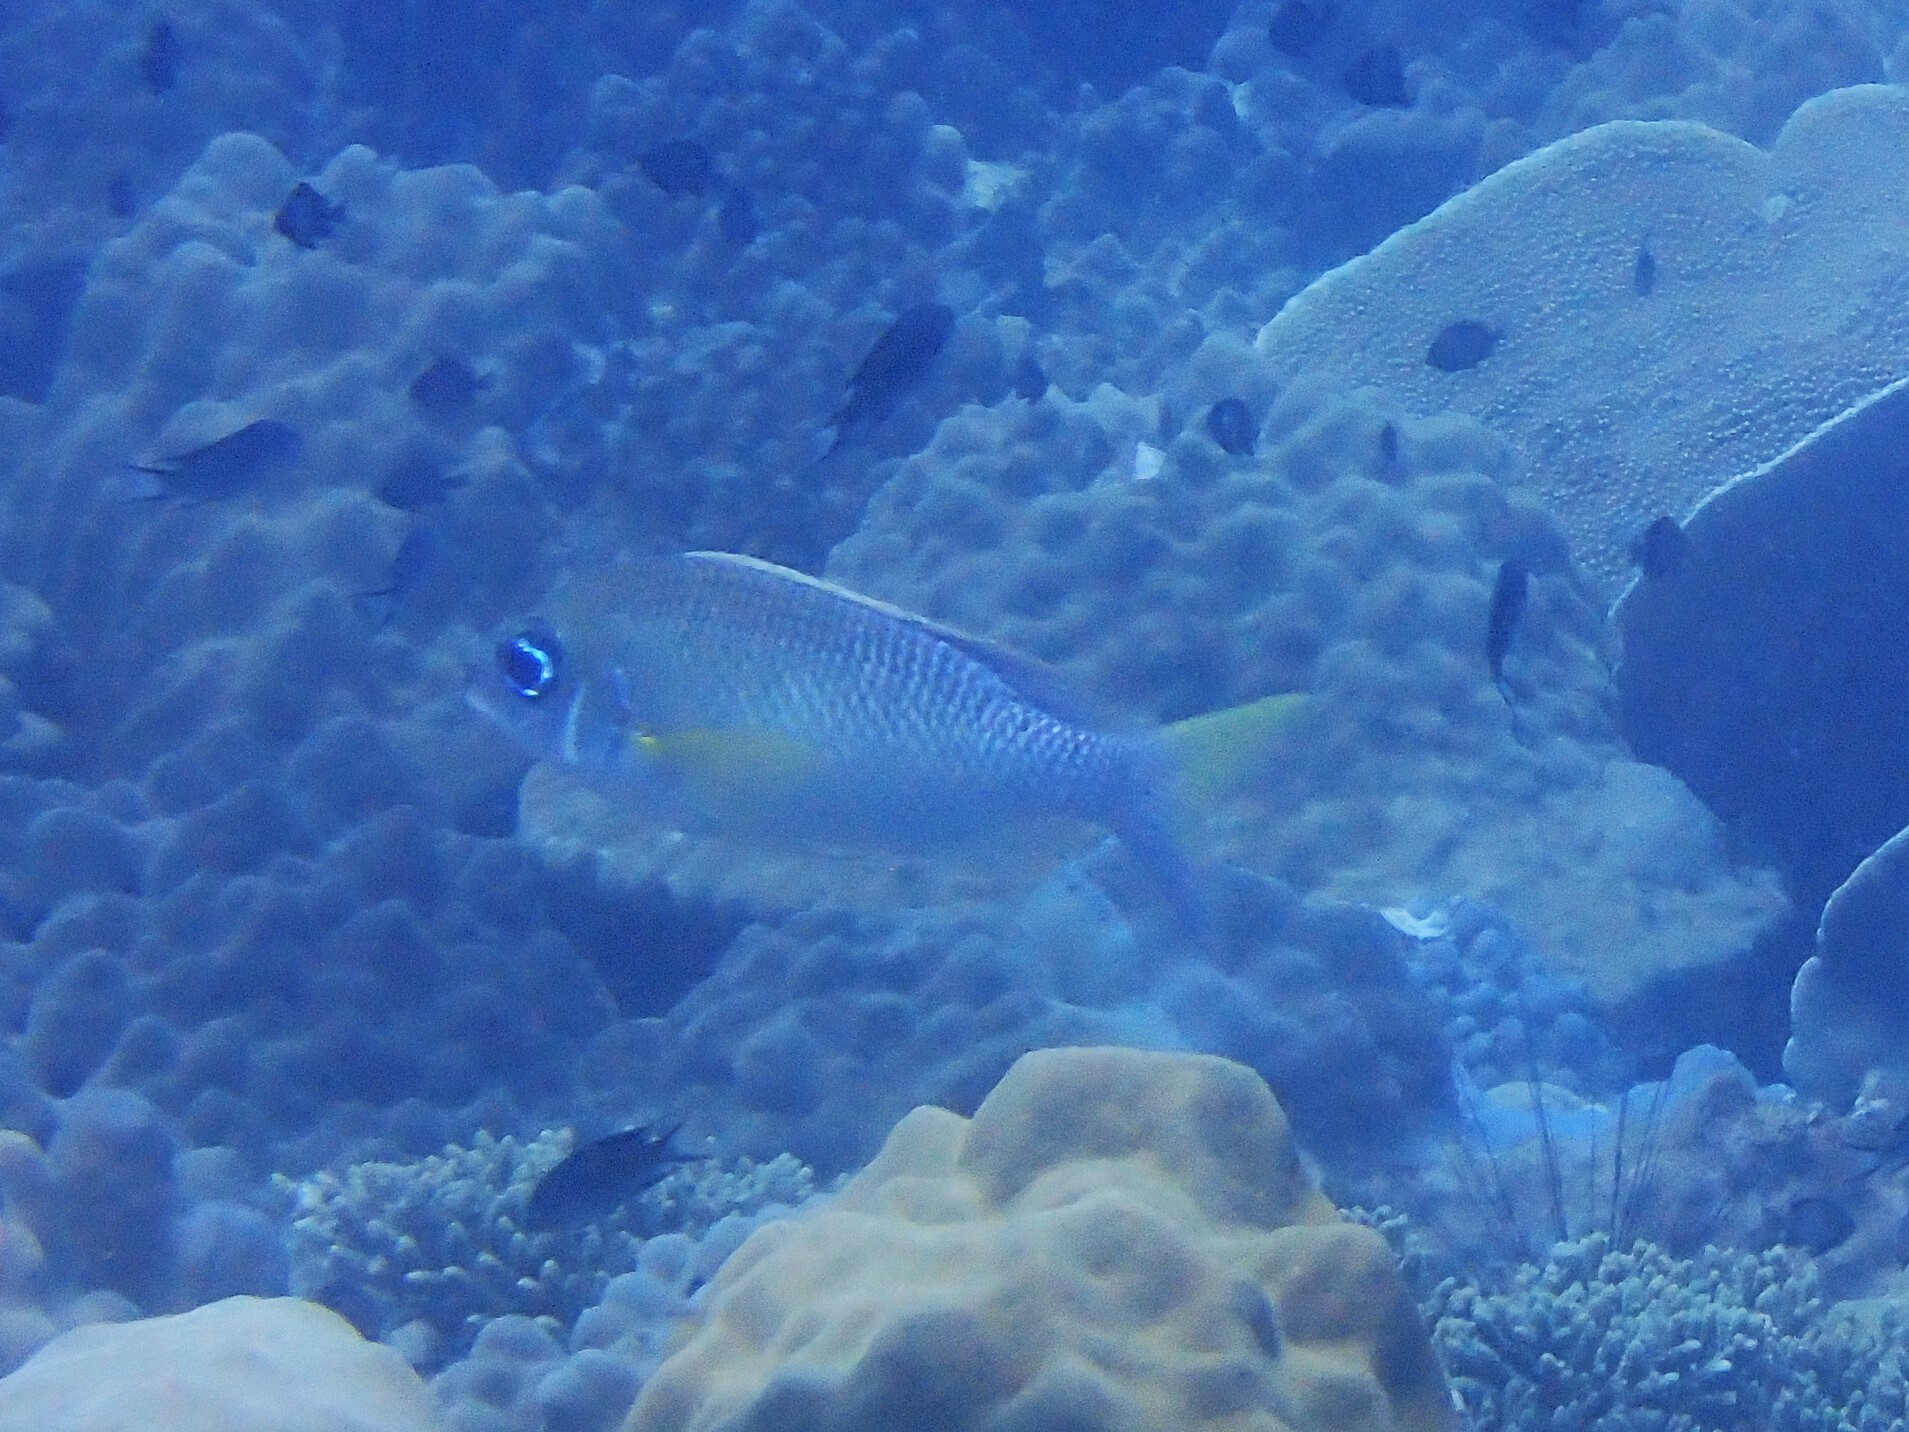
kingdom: Animalia
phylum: Chordata
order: Perciformes
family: Nemipteridae
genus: Scolopsis
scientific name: Scolopsis margaritifera
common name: Pearly monocle bream
